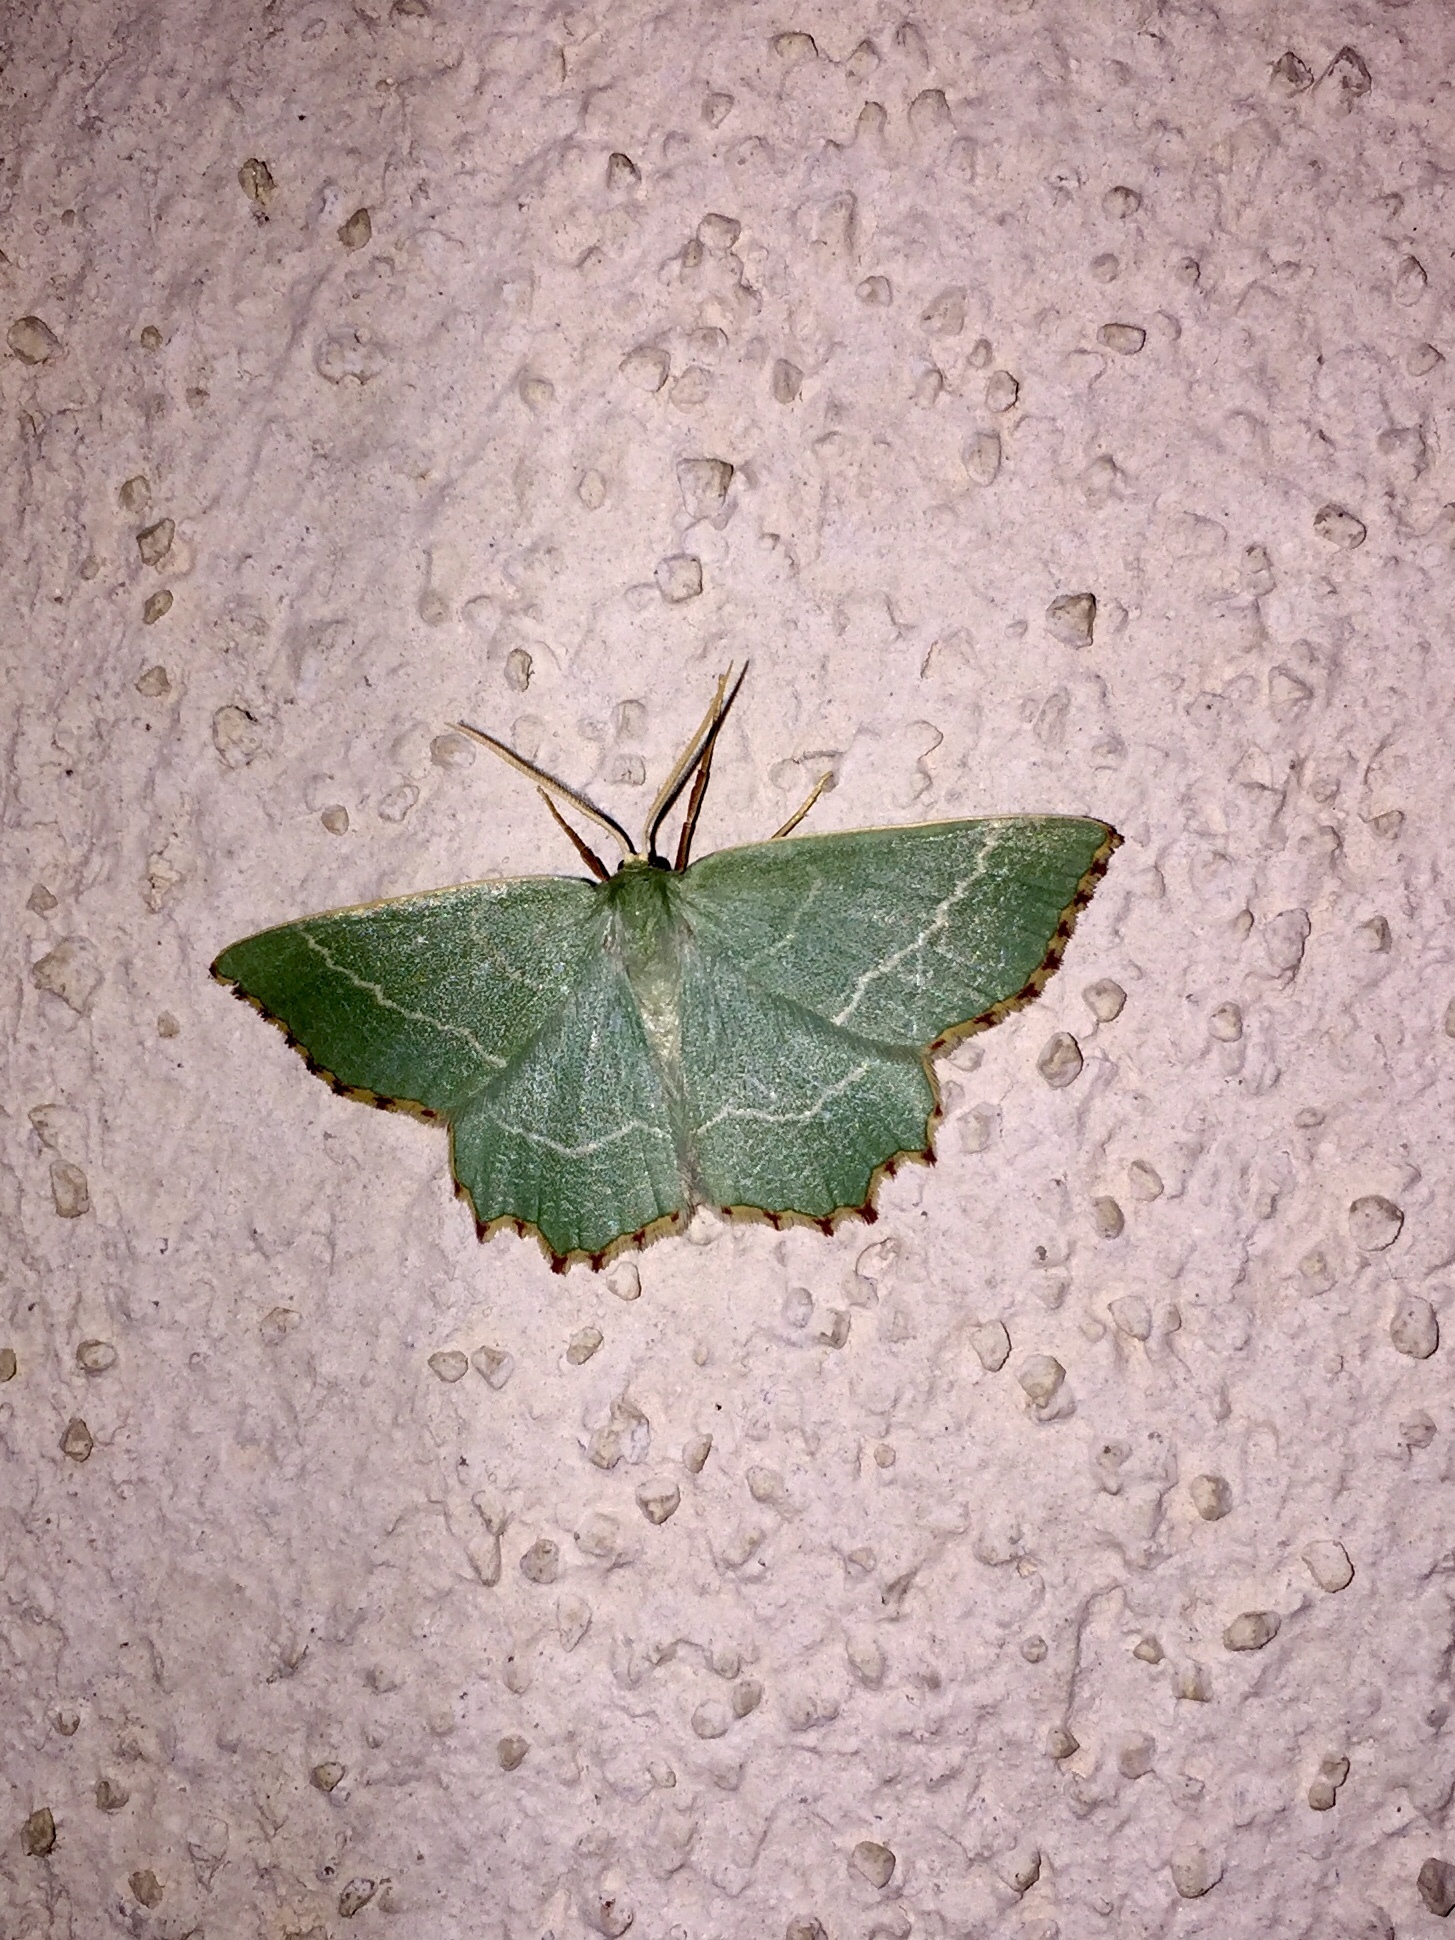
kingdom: Animalia
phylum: Arthropoda
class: Insecta
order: Lepidoptera
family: Geometridae
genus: Thalera
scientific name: Thalera fimbrialis
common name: Sussex emerald
